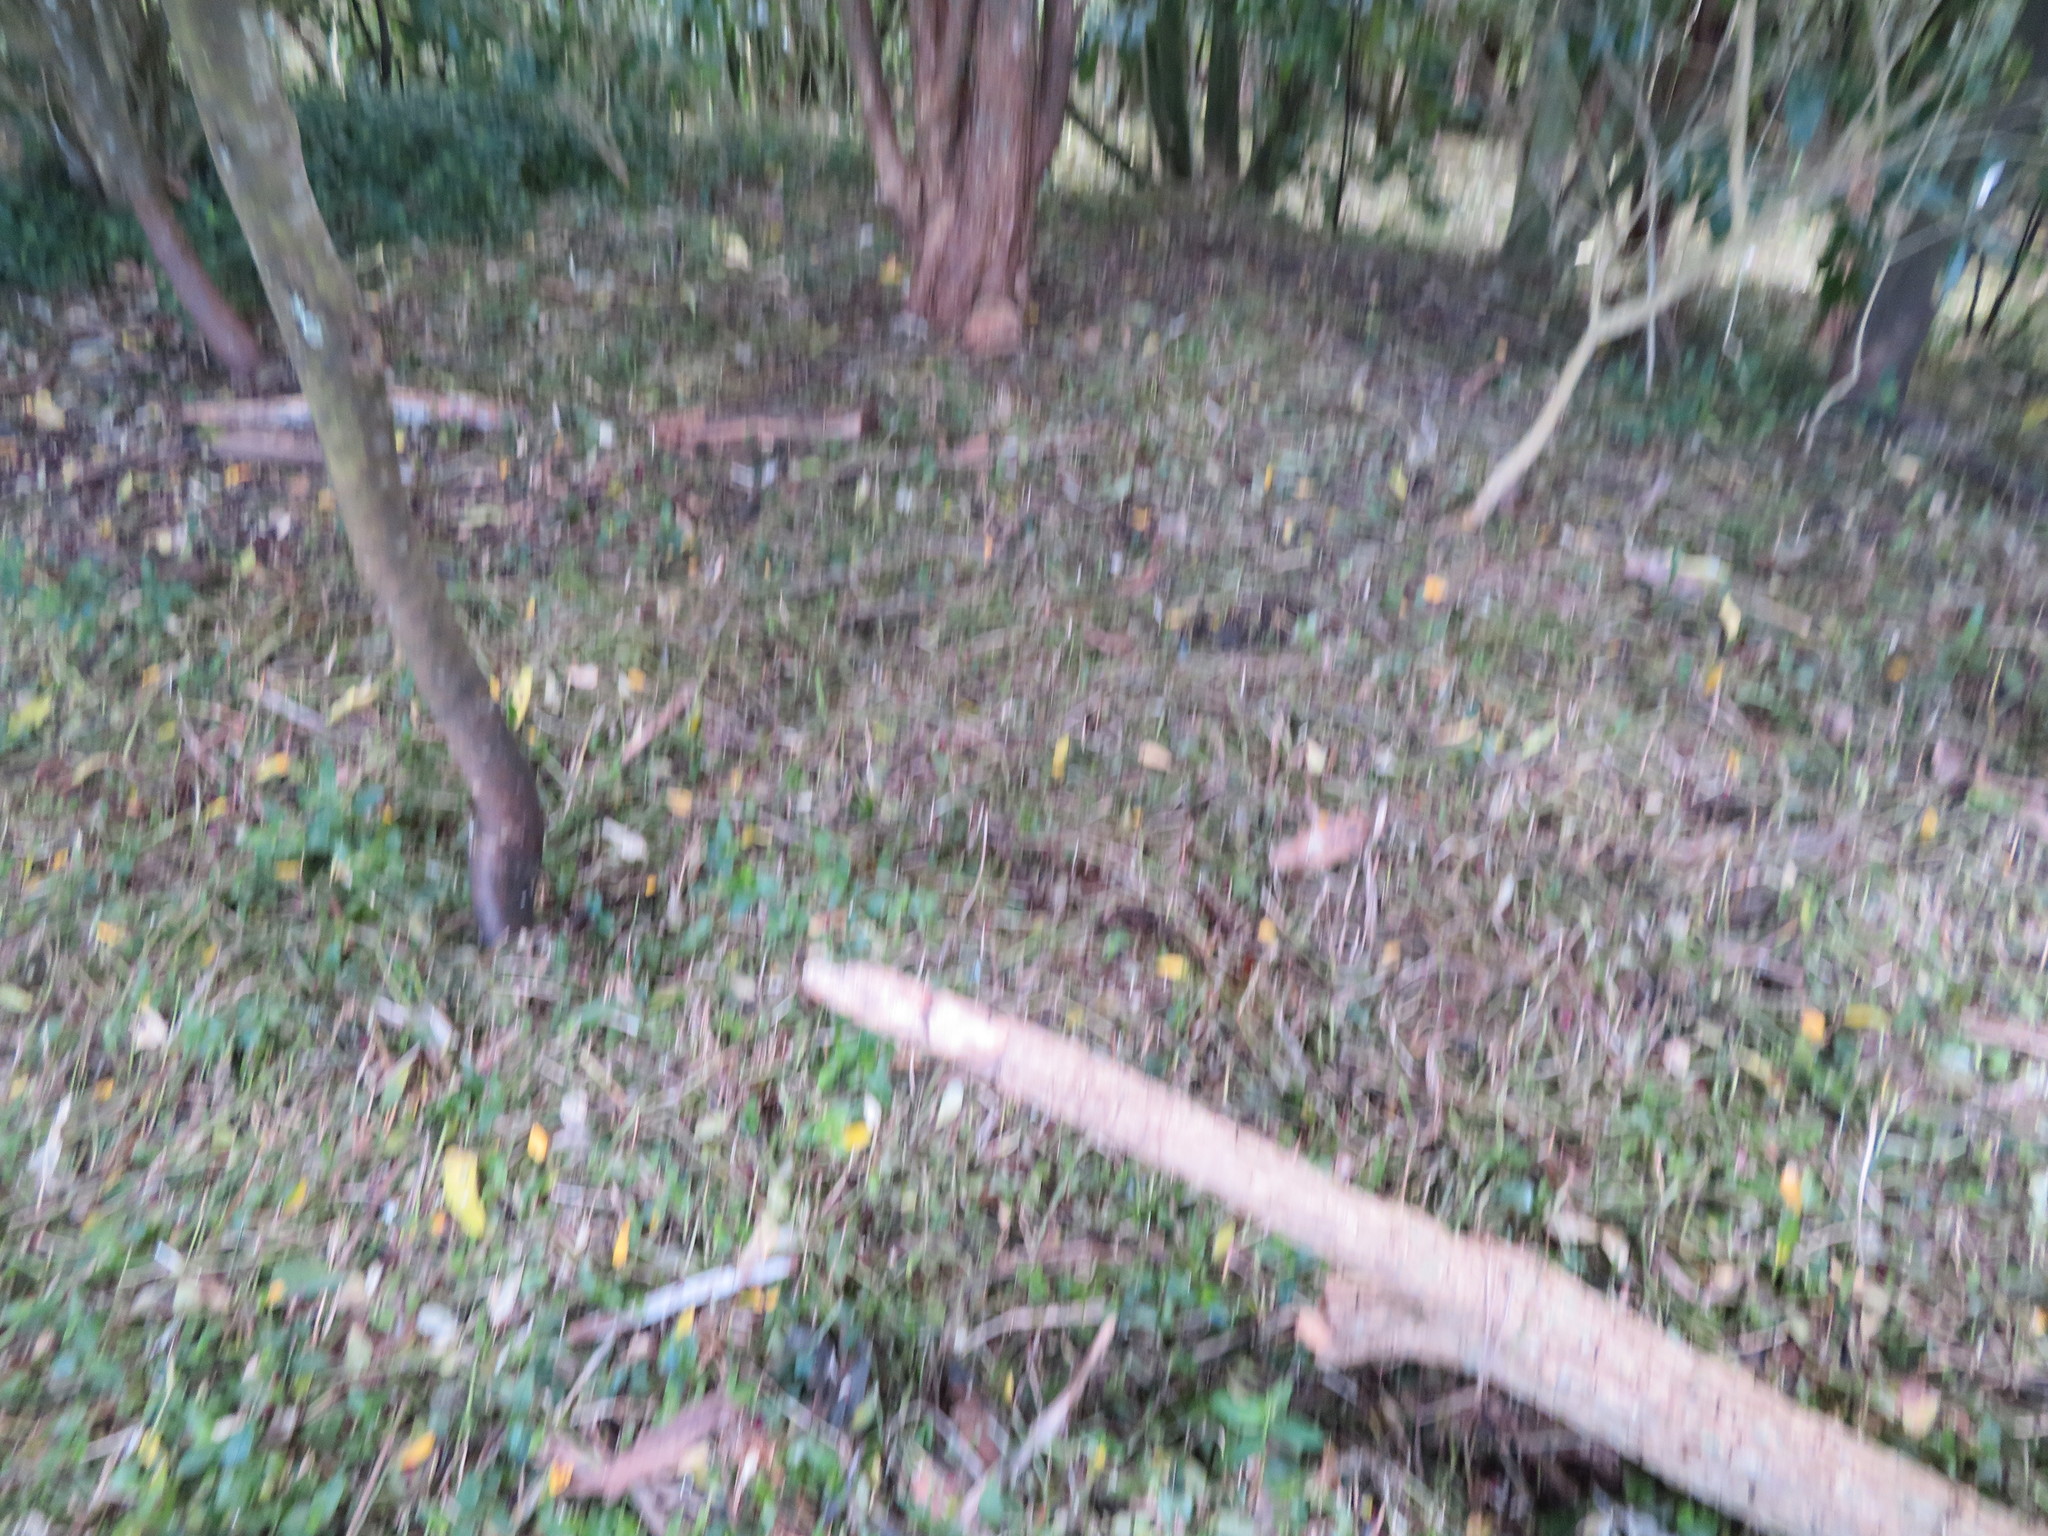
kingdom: Plantae
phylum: Tracheophyta
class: Liliopsida
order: Commelinales
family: Commelinaceae
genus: Tradescantia
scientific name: Tradescantia fluminensis
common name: Wandering-jew
